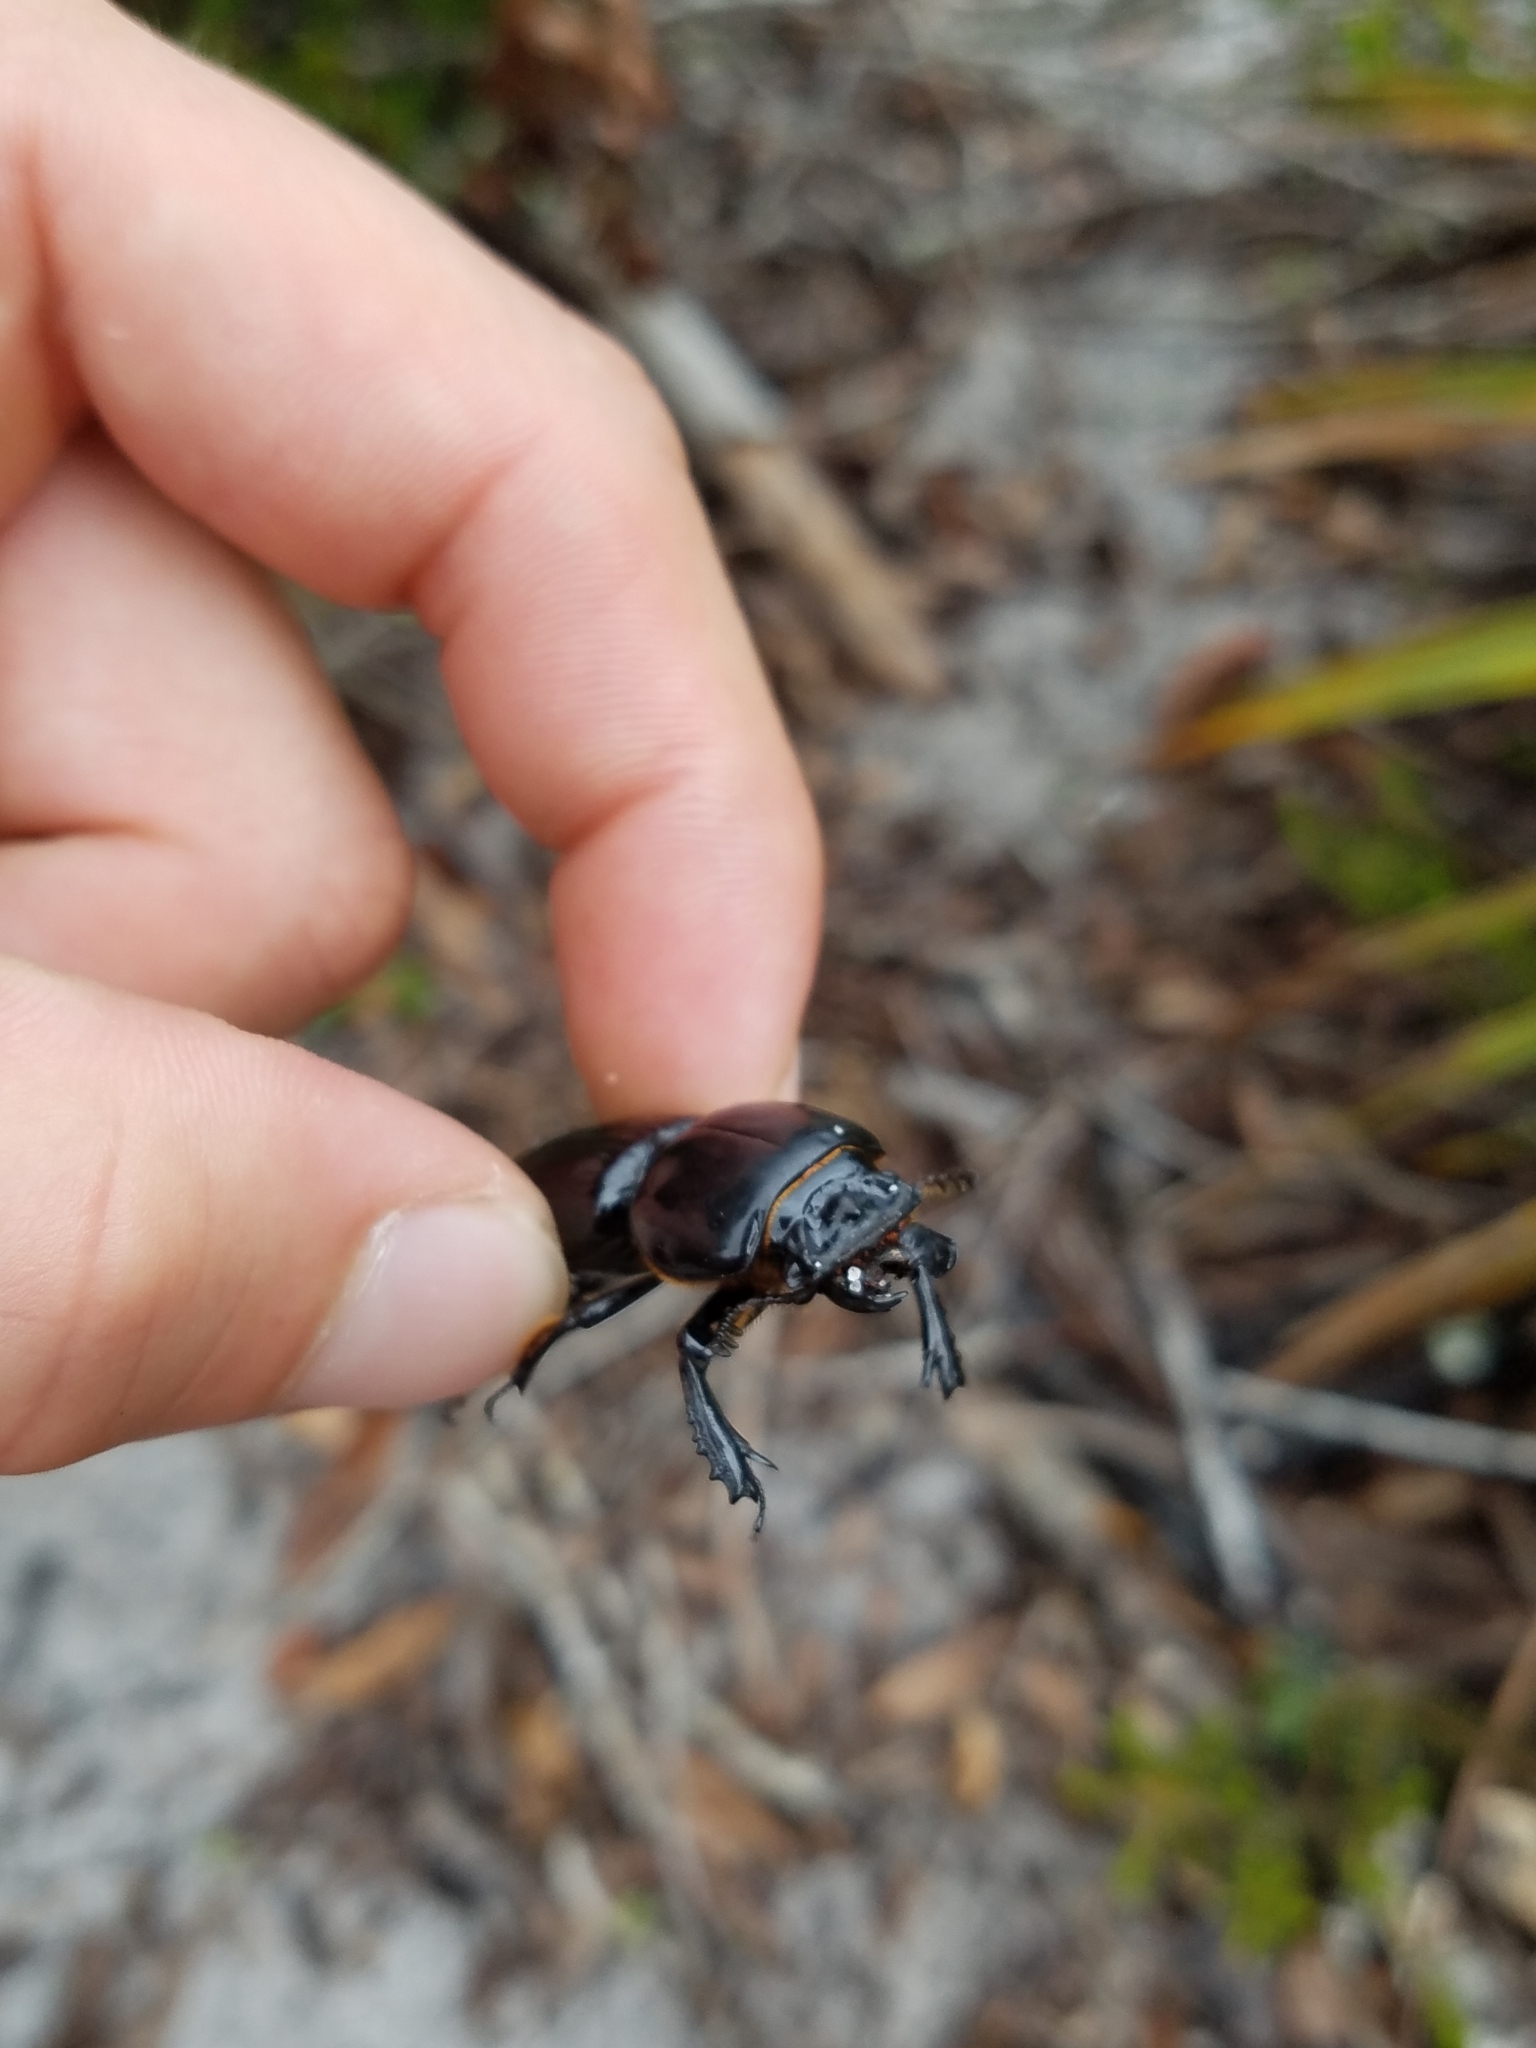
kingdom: Animalia
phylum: Arthropoda
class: Insecta
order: Coleoptera
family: Passalidae
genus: Odontotaenius
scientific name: Odontotaenius floridanus
